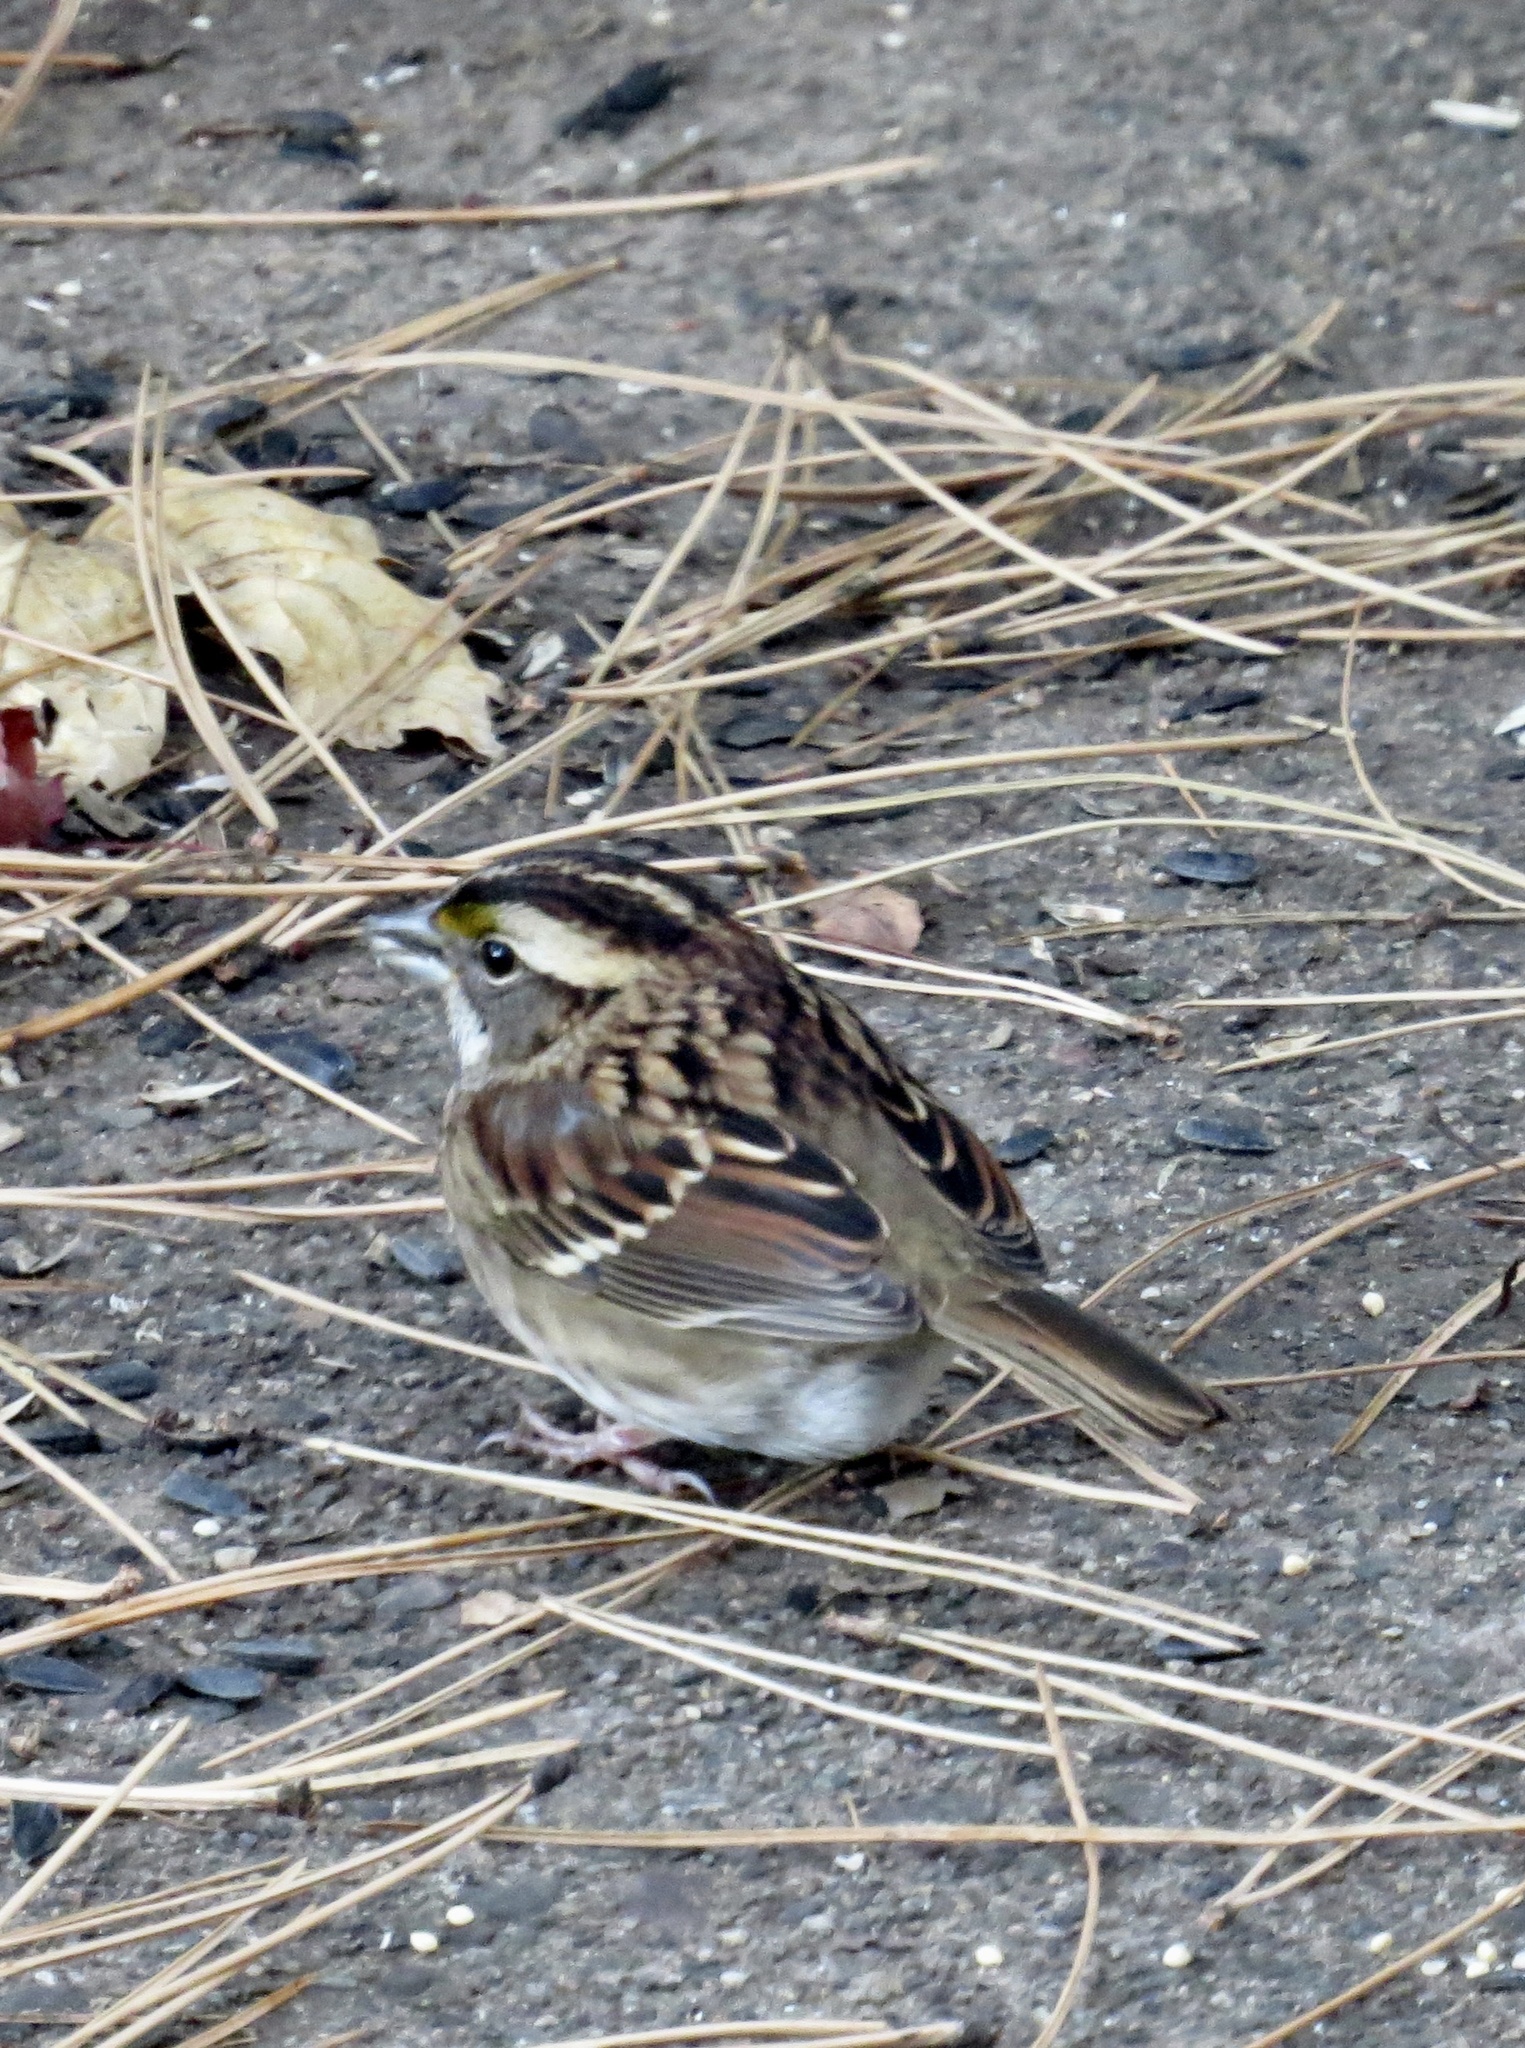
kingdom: Animalia
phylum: Chordata
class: Aves
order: Passeriformes
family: Passerellidae
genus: Zonotrichia
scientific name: Zonotrichia albicollis
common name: White-throated sparrow
